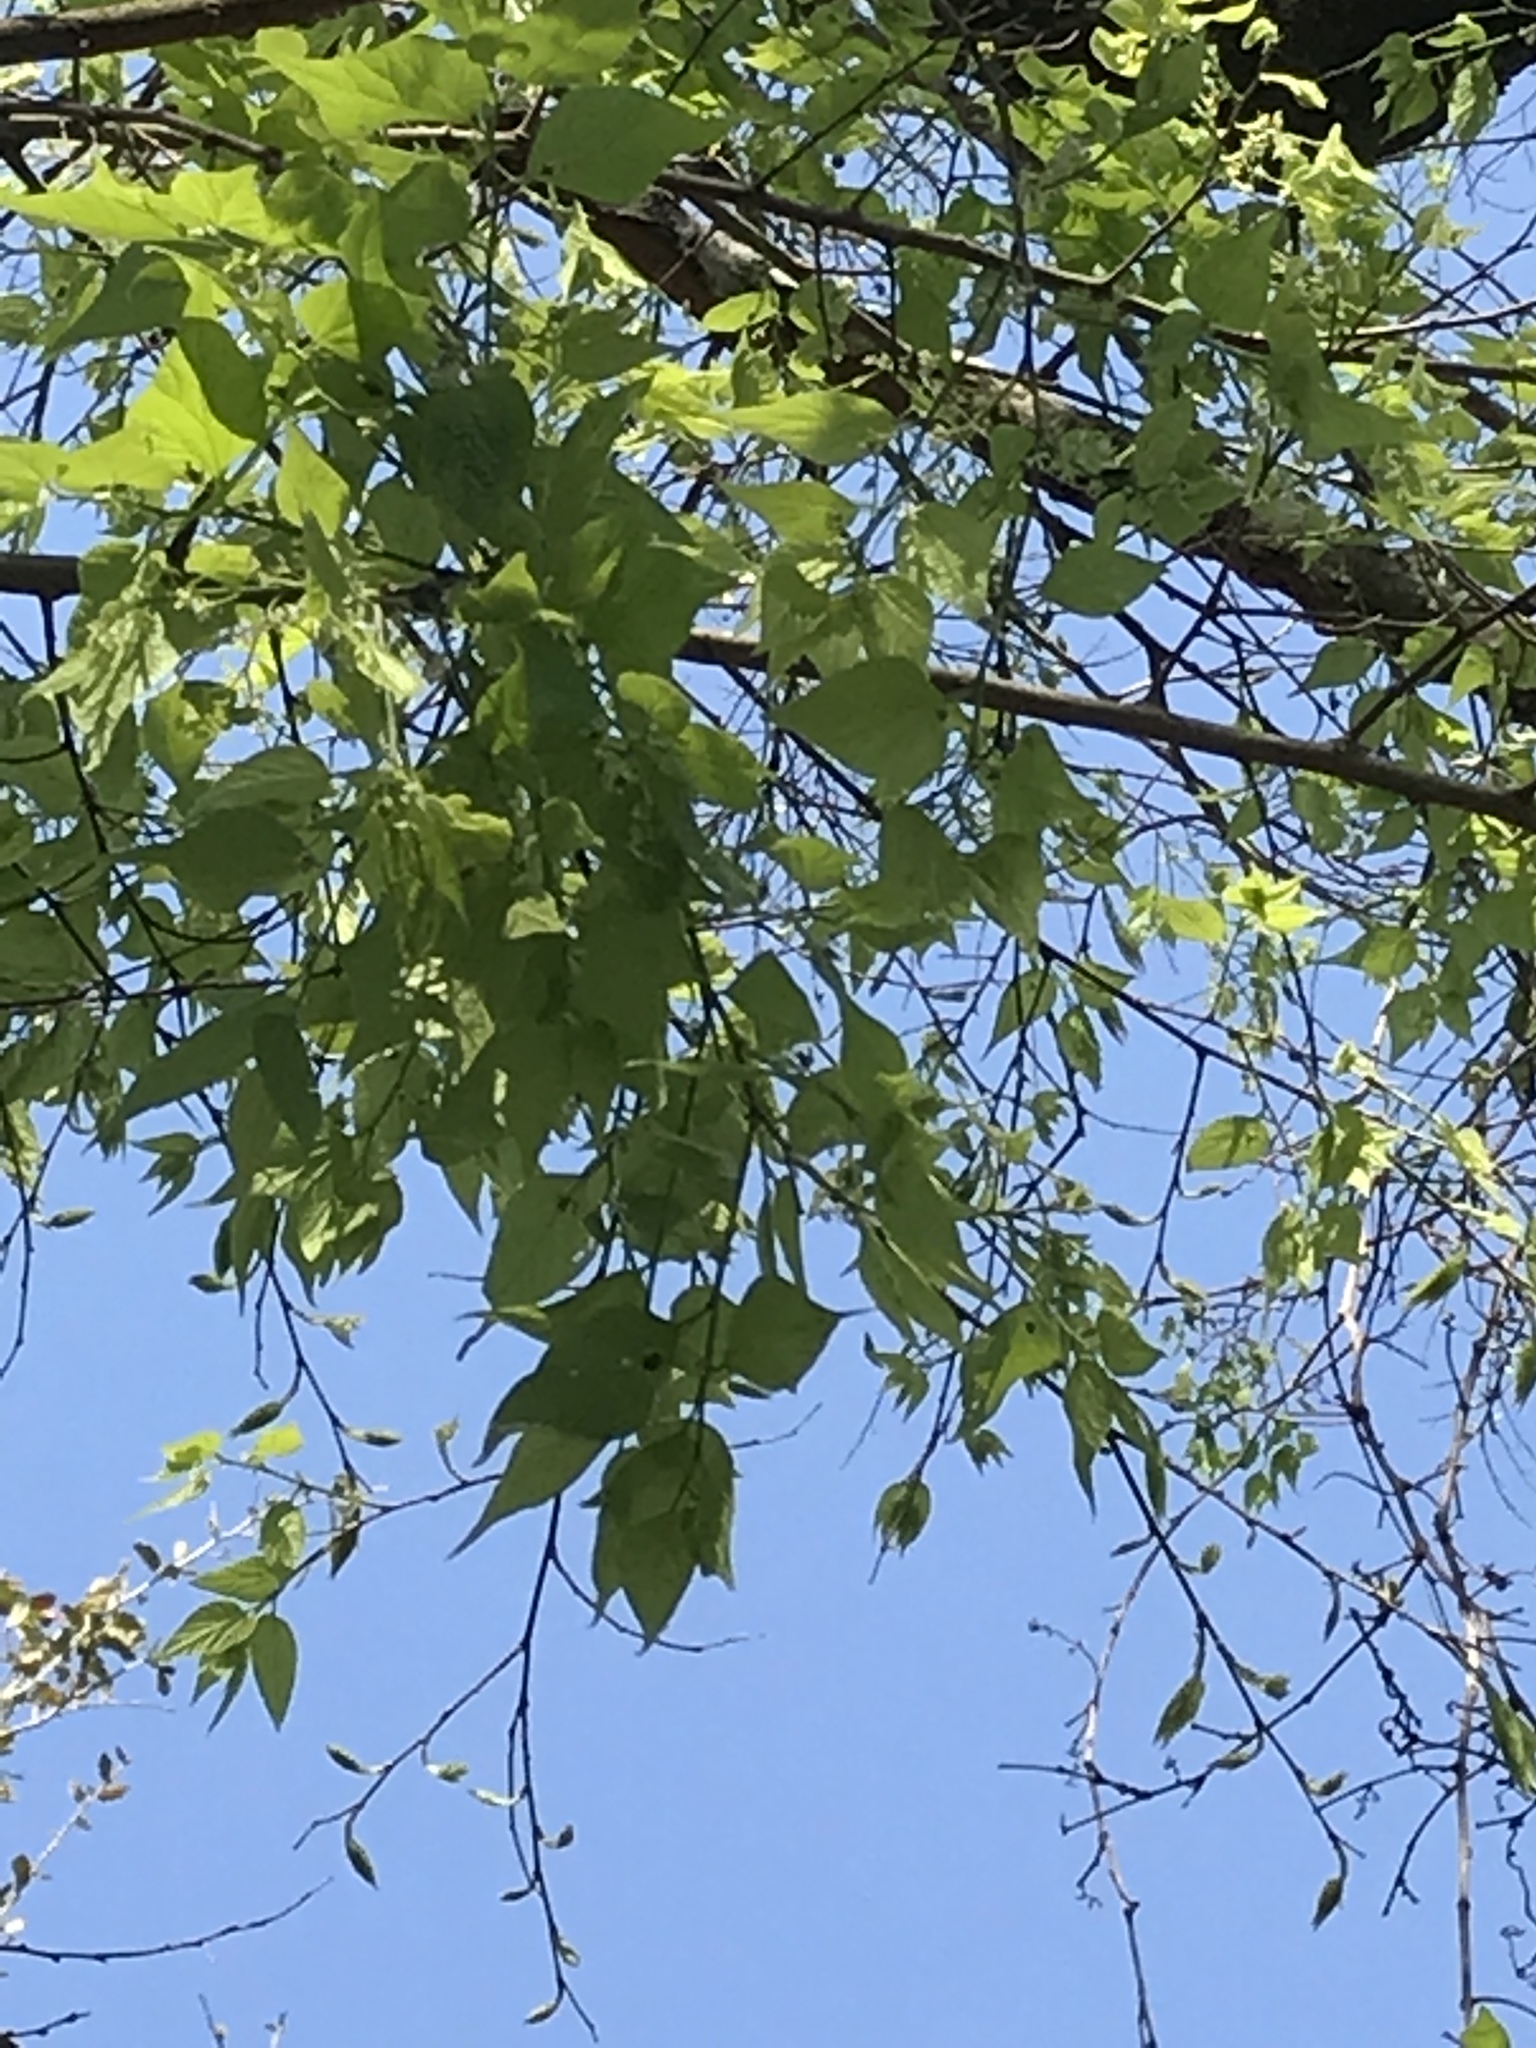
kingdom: Plantae
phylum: Tracheophyta
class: Magnoliopsida
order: Rosales
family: Cannabaceae
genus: Celtis
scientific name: Celtis laevigata
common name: Sugarberry
